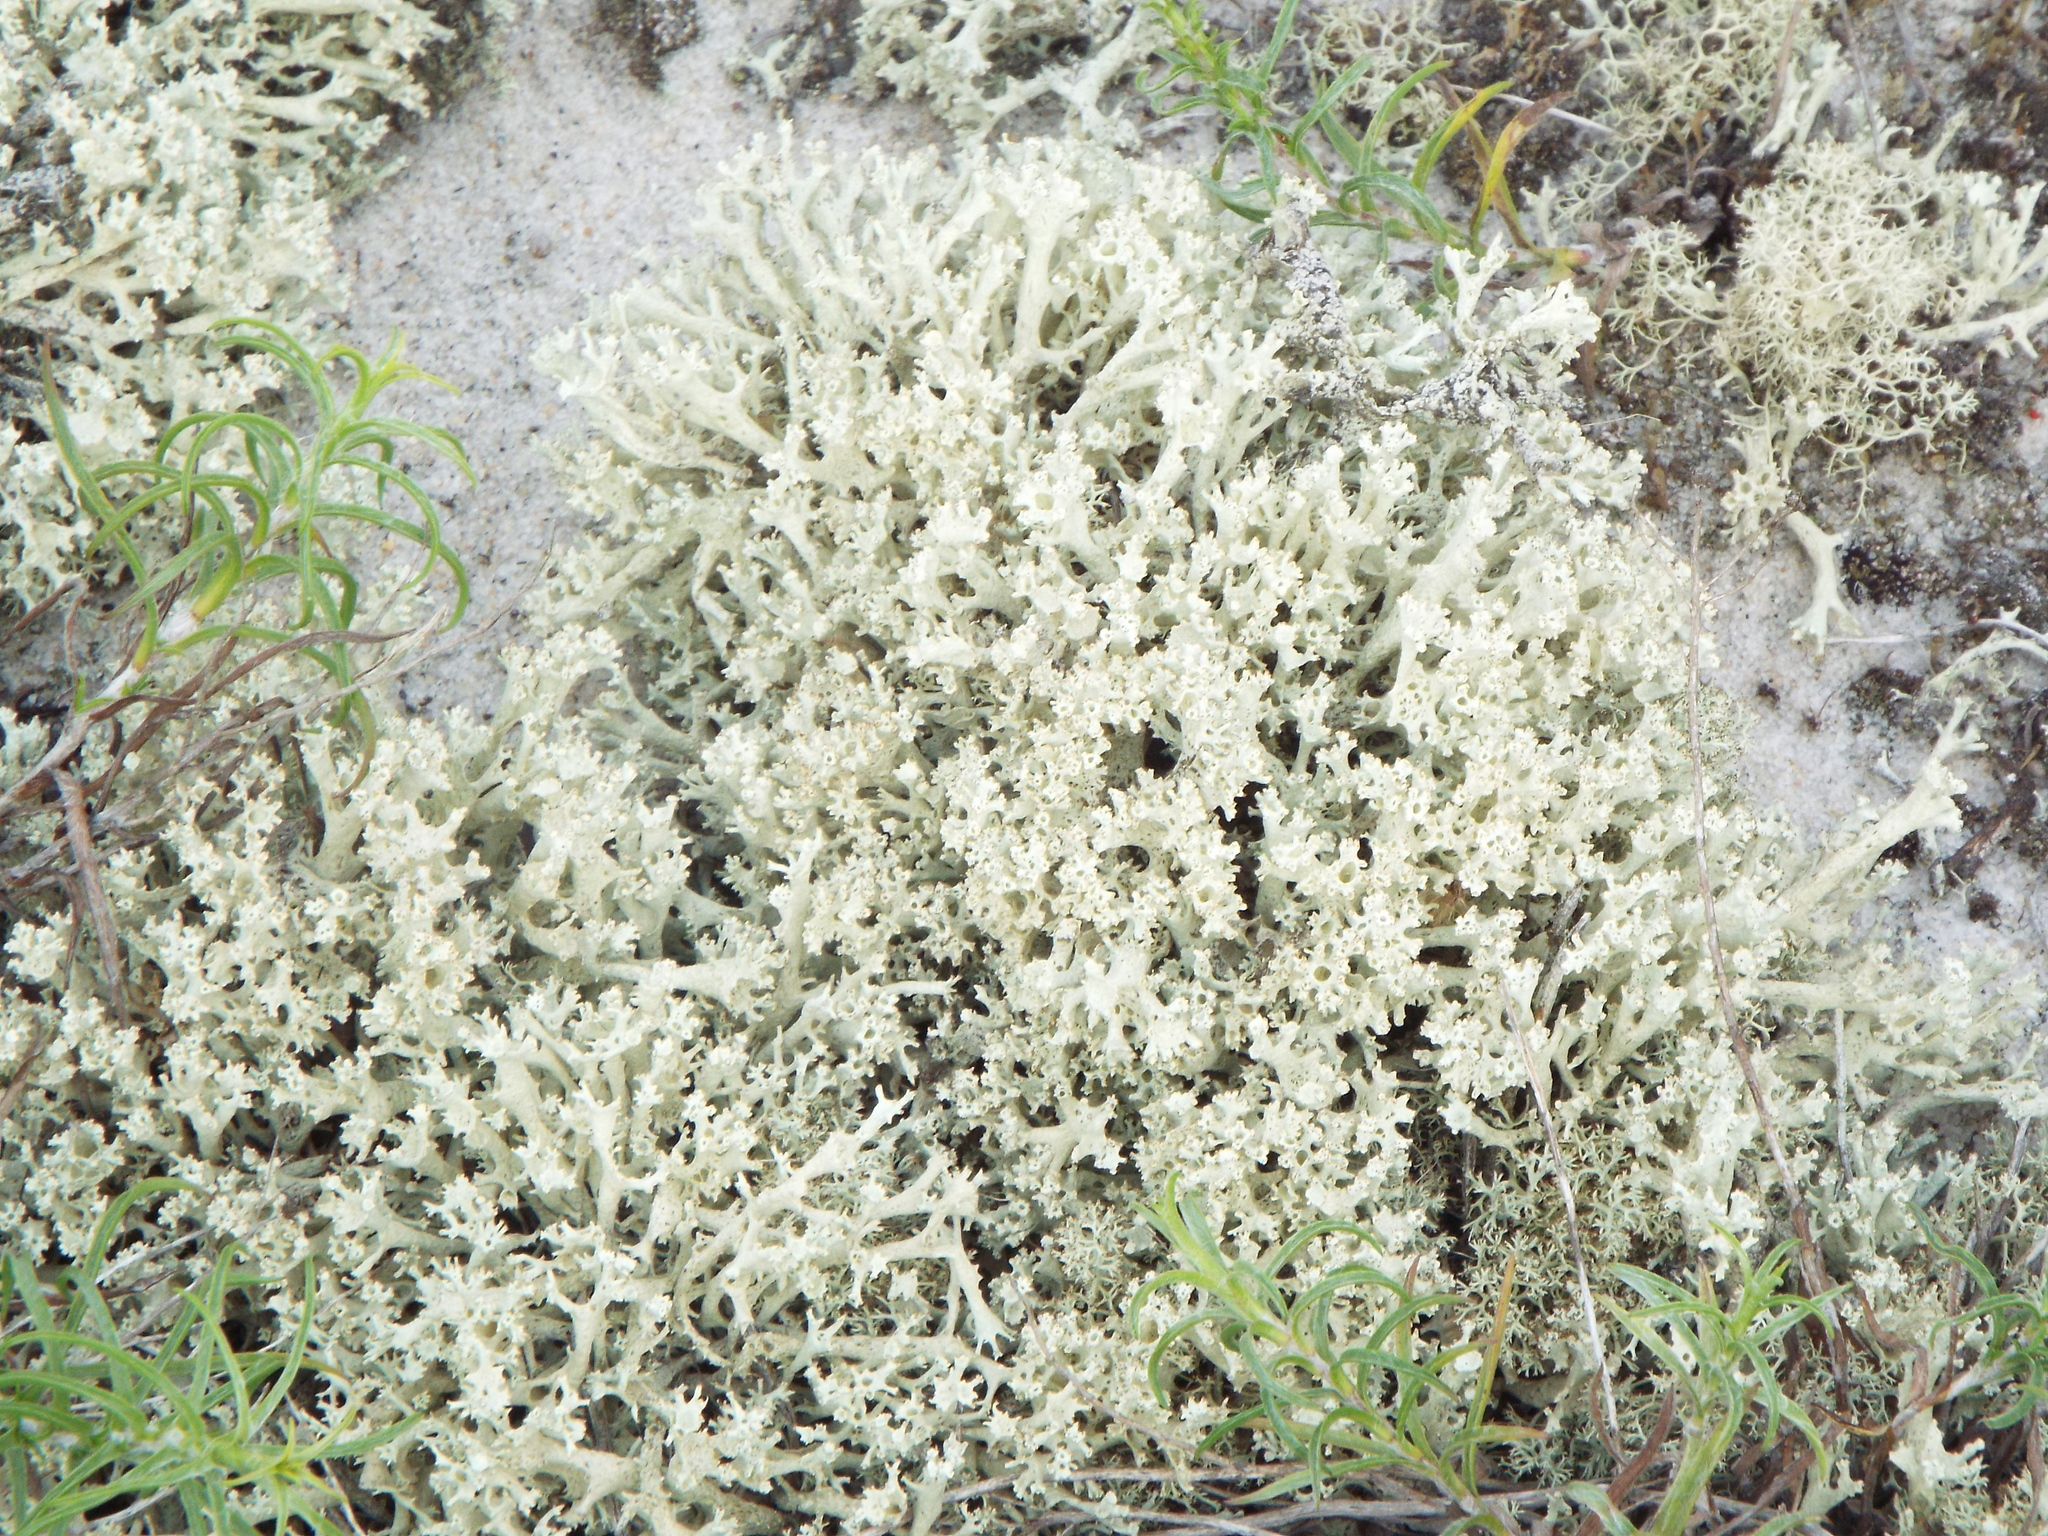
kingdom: Fungi
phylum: Ascomycota
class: Lecanoromycetes
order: Lecanorales
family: Cladoniaceae
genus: Cladonia
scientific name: Cladonia boryi
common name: Fishnet cladonia
